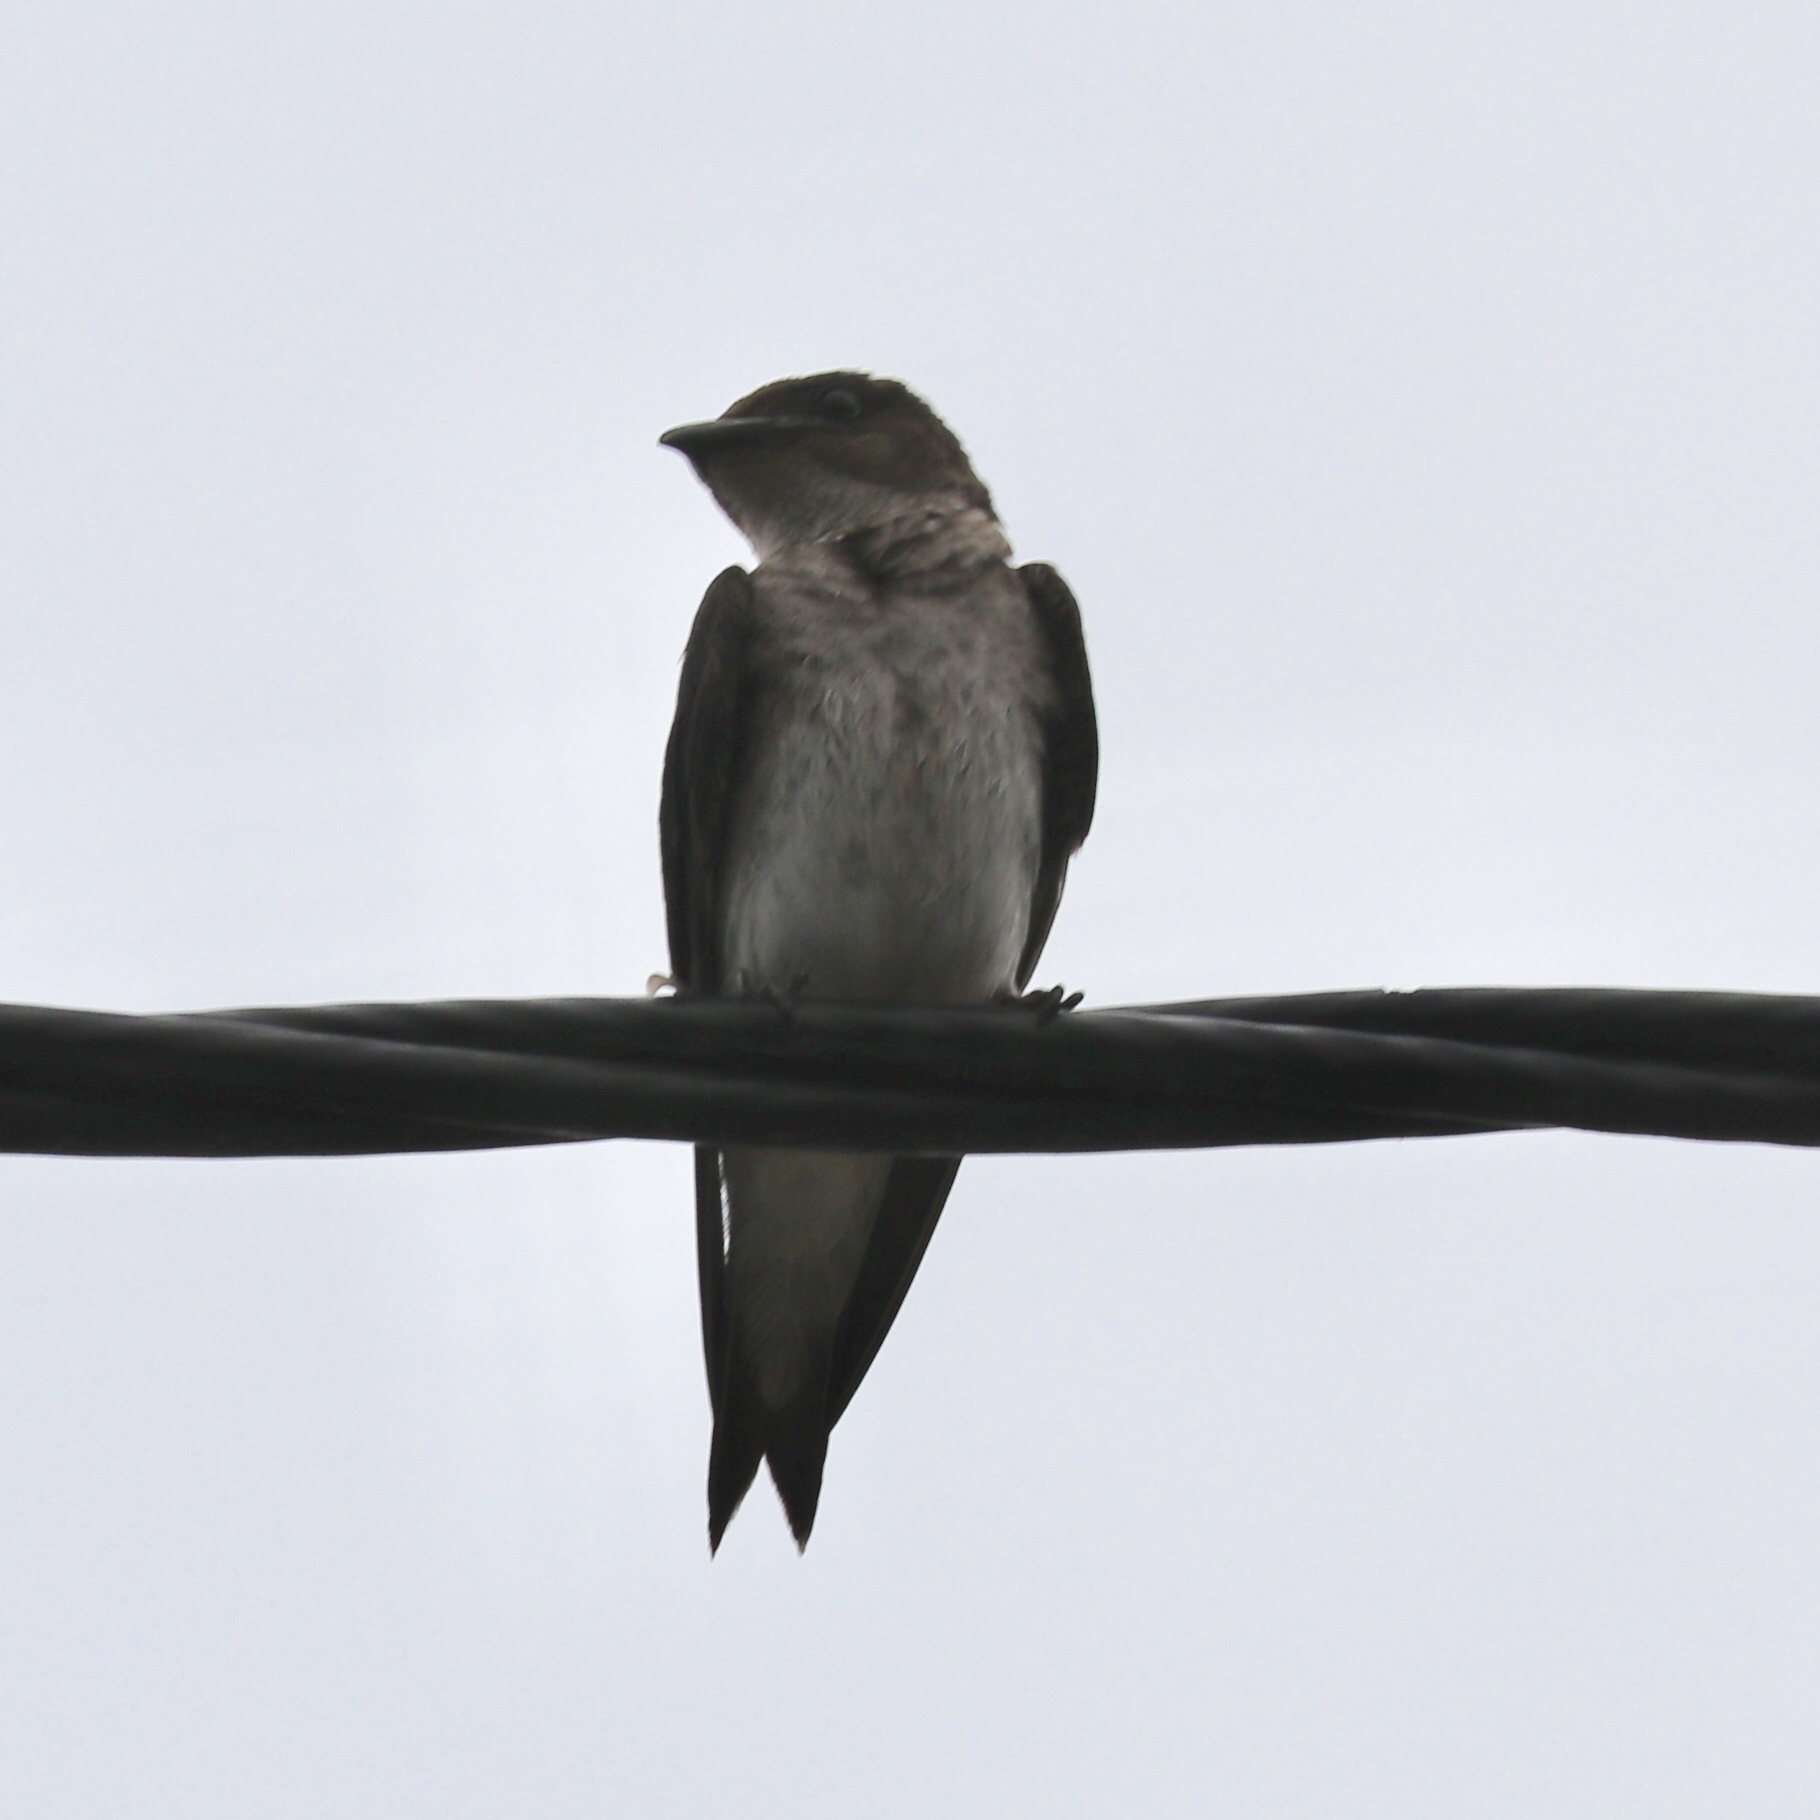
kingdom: Animalia
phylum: Chordata
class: Aves
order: Passeriformes
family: Hirundinidae
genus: Progne
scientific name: Progne chalybea
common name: Grey-breasted martin
